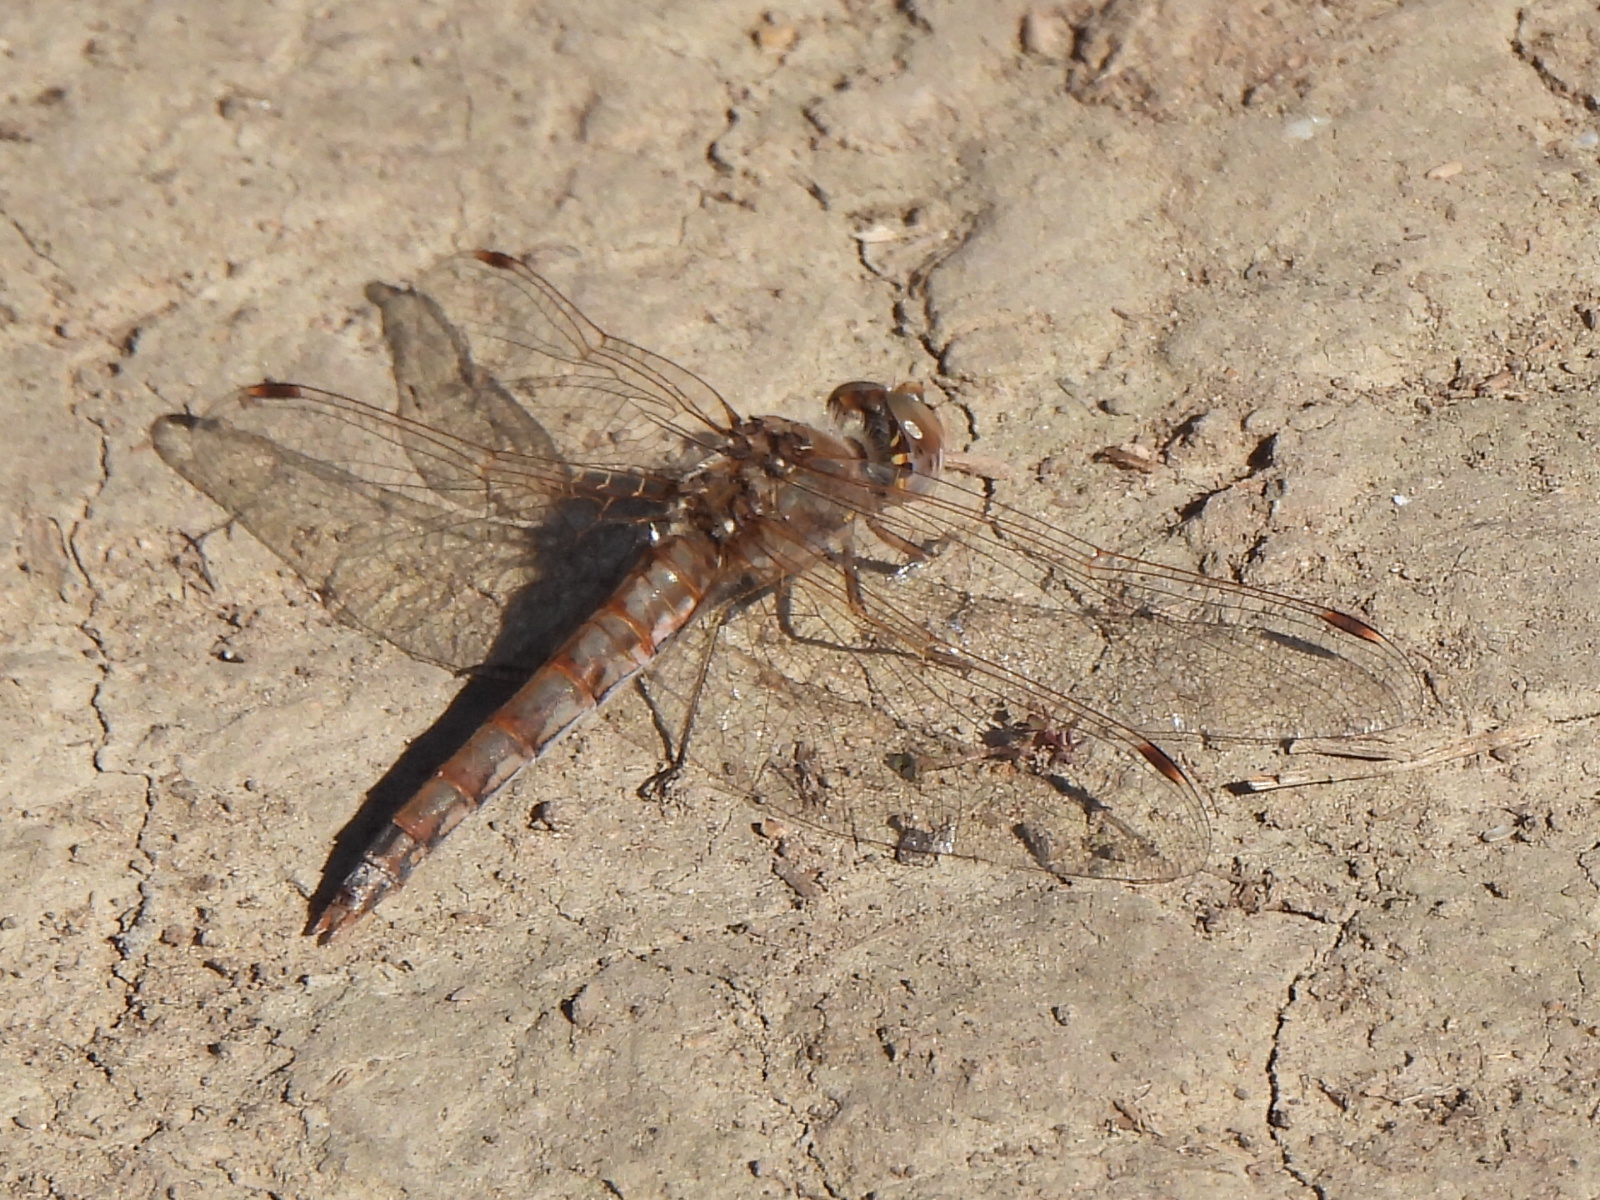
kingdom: Animalia
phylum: Arthropoda
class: Insecta
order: Odonata
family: Libellulidae
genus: Sympetrum
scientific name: Sympetrum corruptum
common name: Variegated meadowhawk
